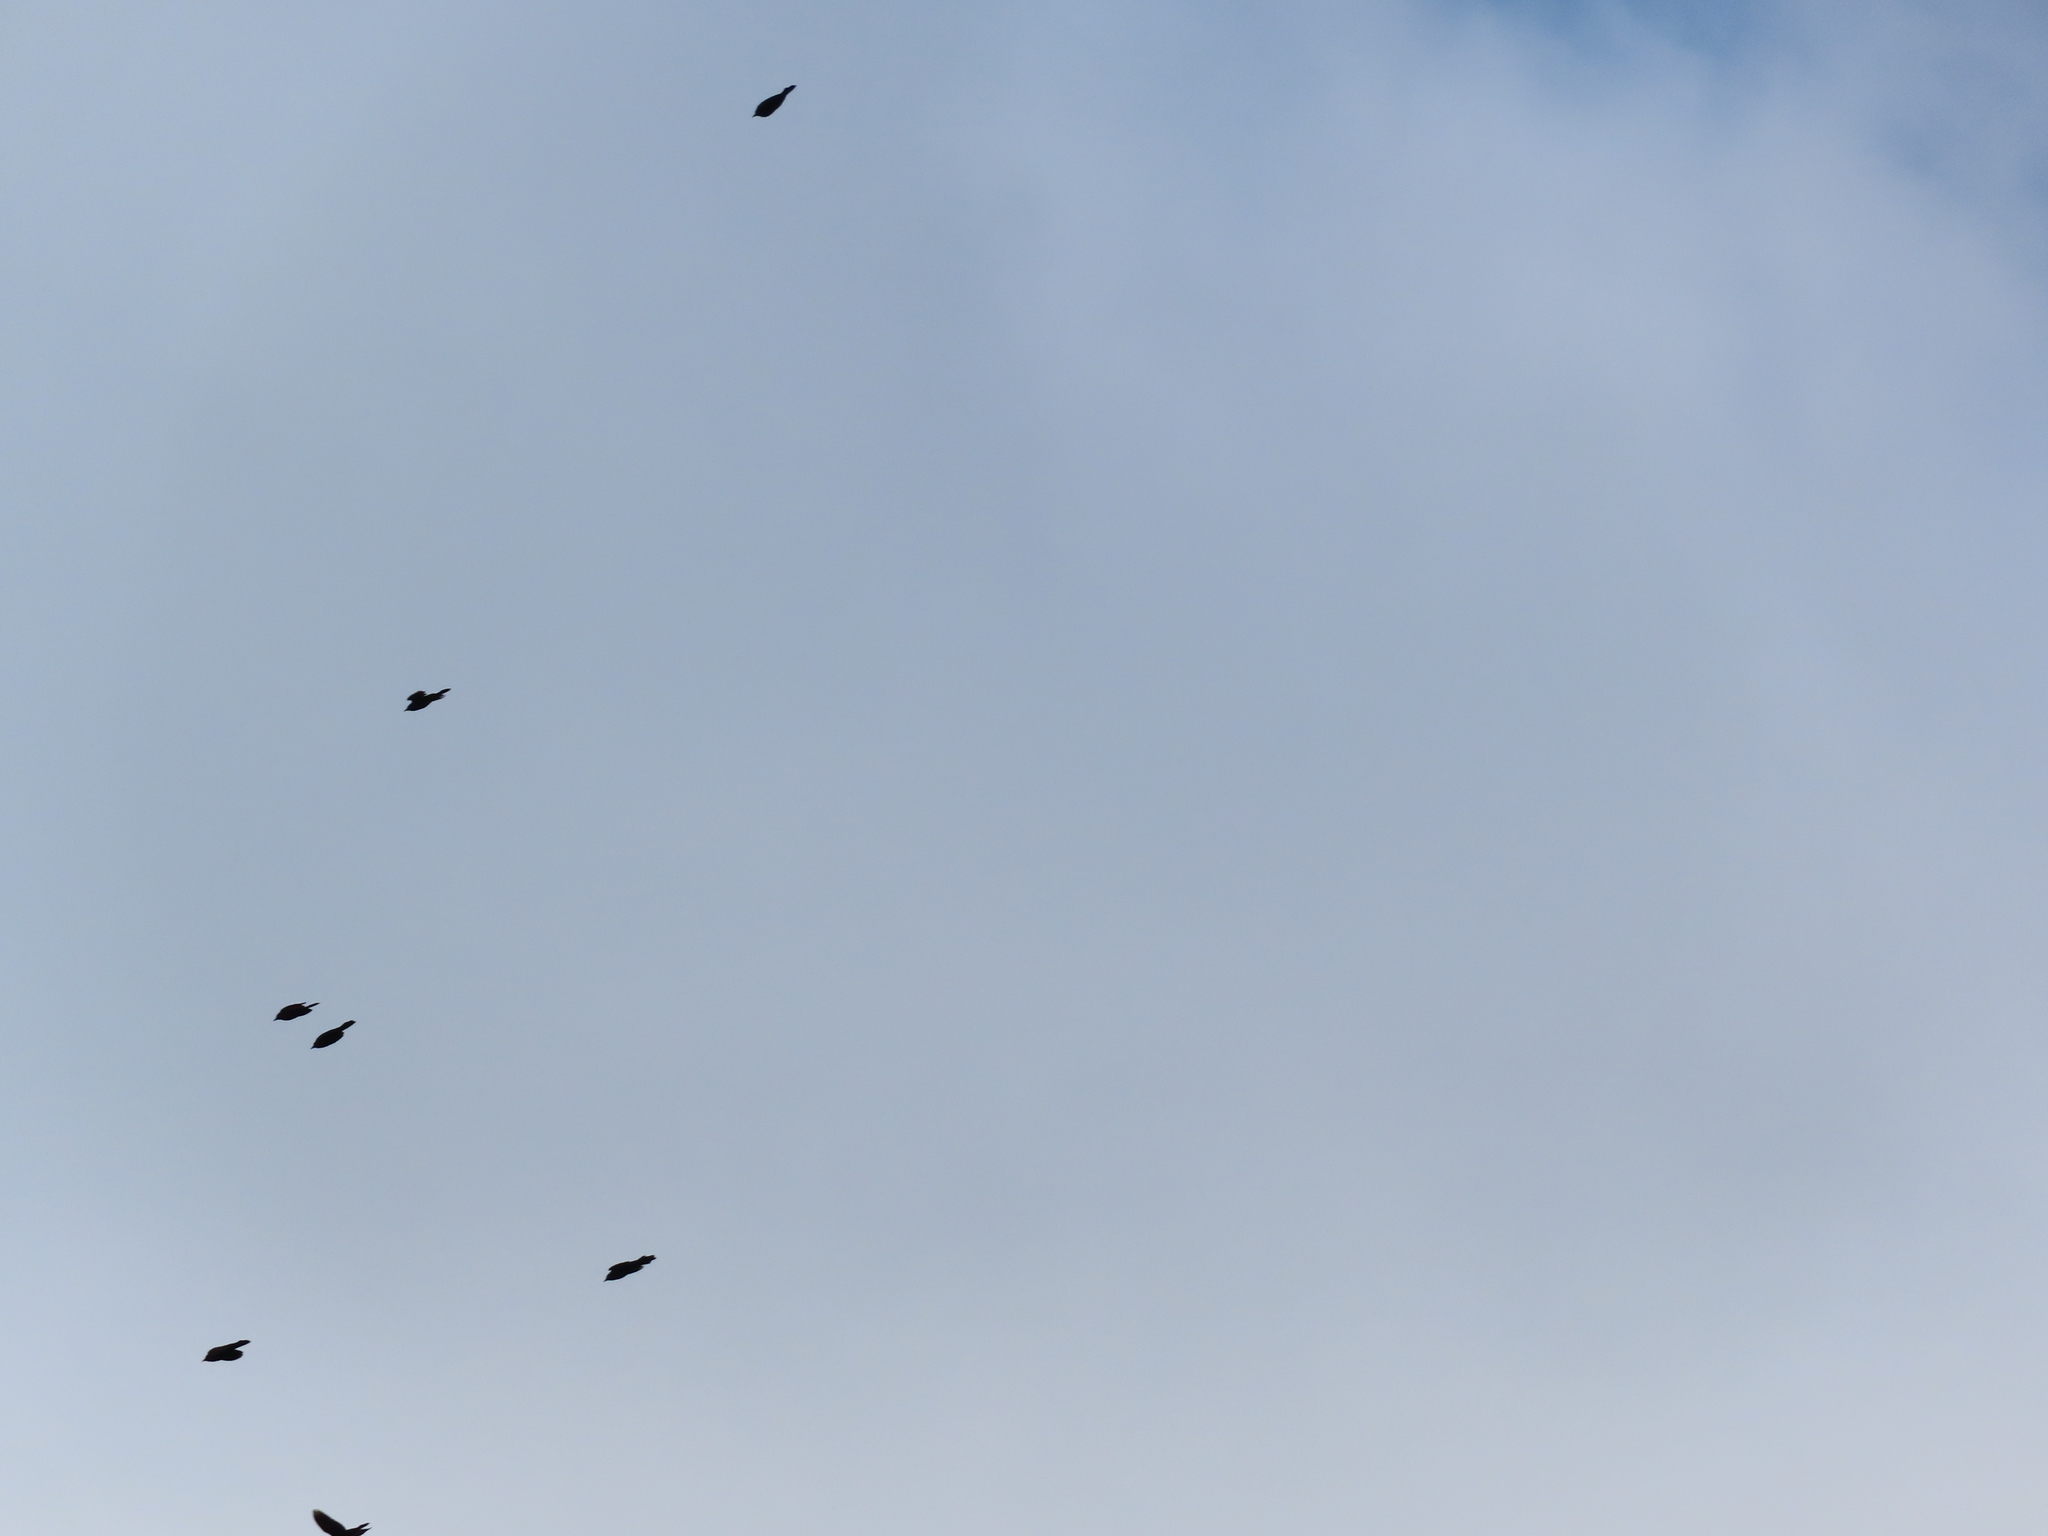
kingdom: Animalia
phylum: Chordata
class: Aves
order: Passeriformes
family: Icteridae
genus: Quiscalus
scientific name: Quiscalus quiscula
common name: Common grackle
